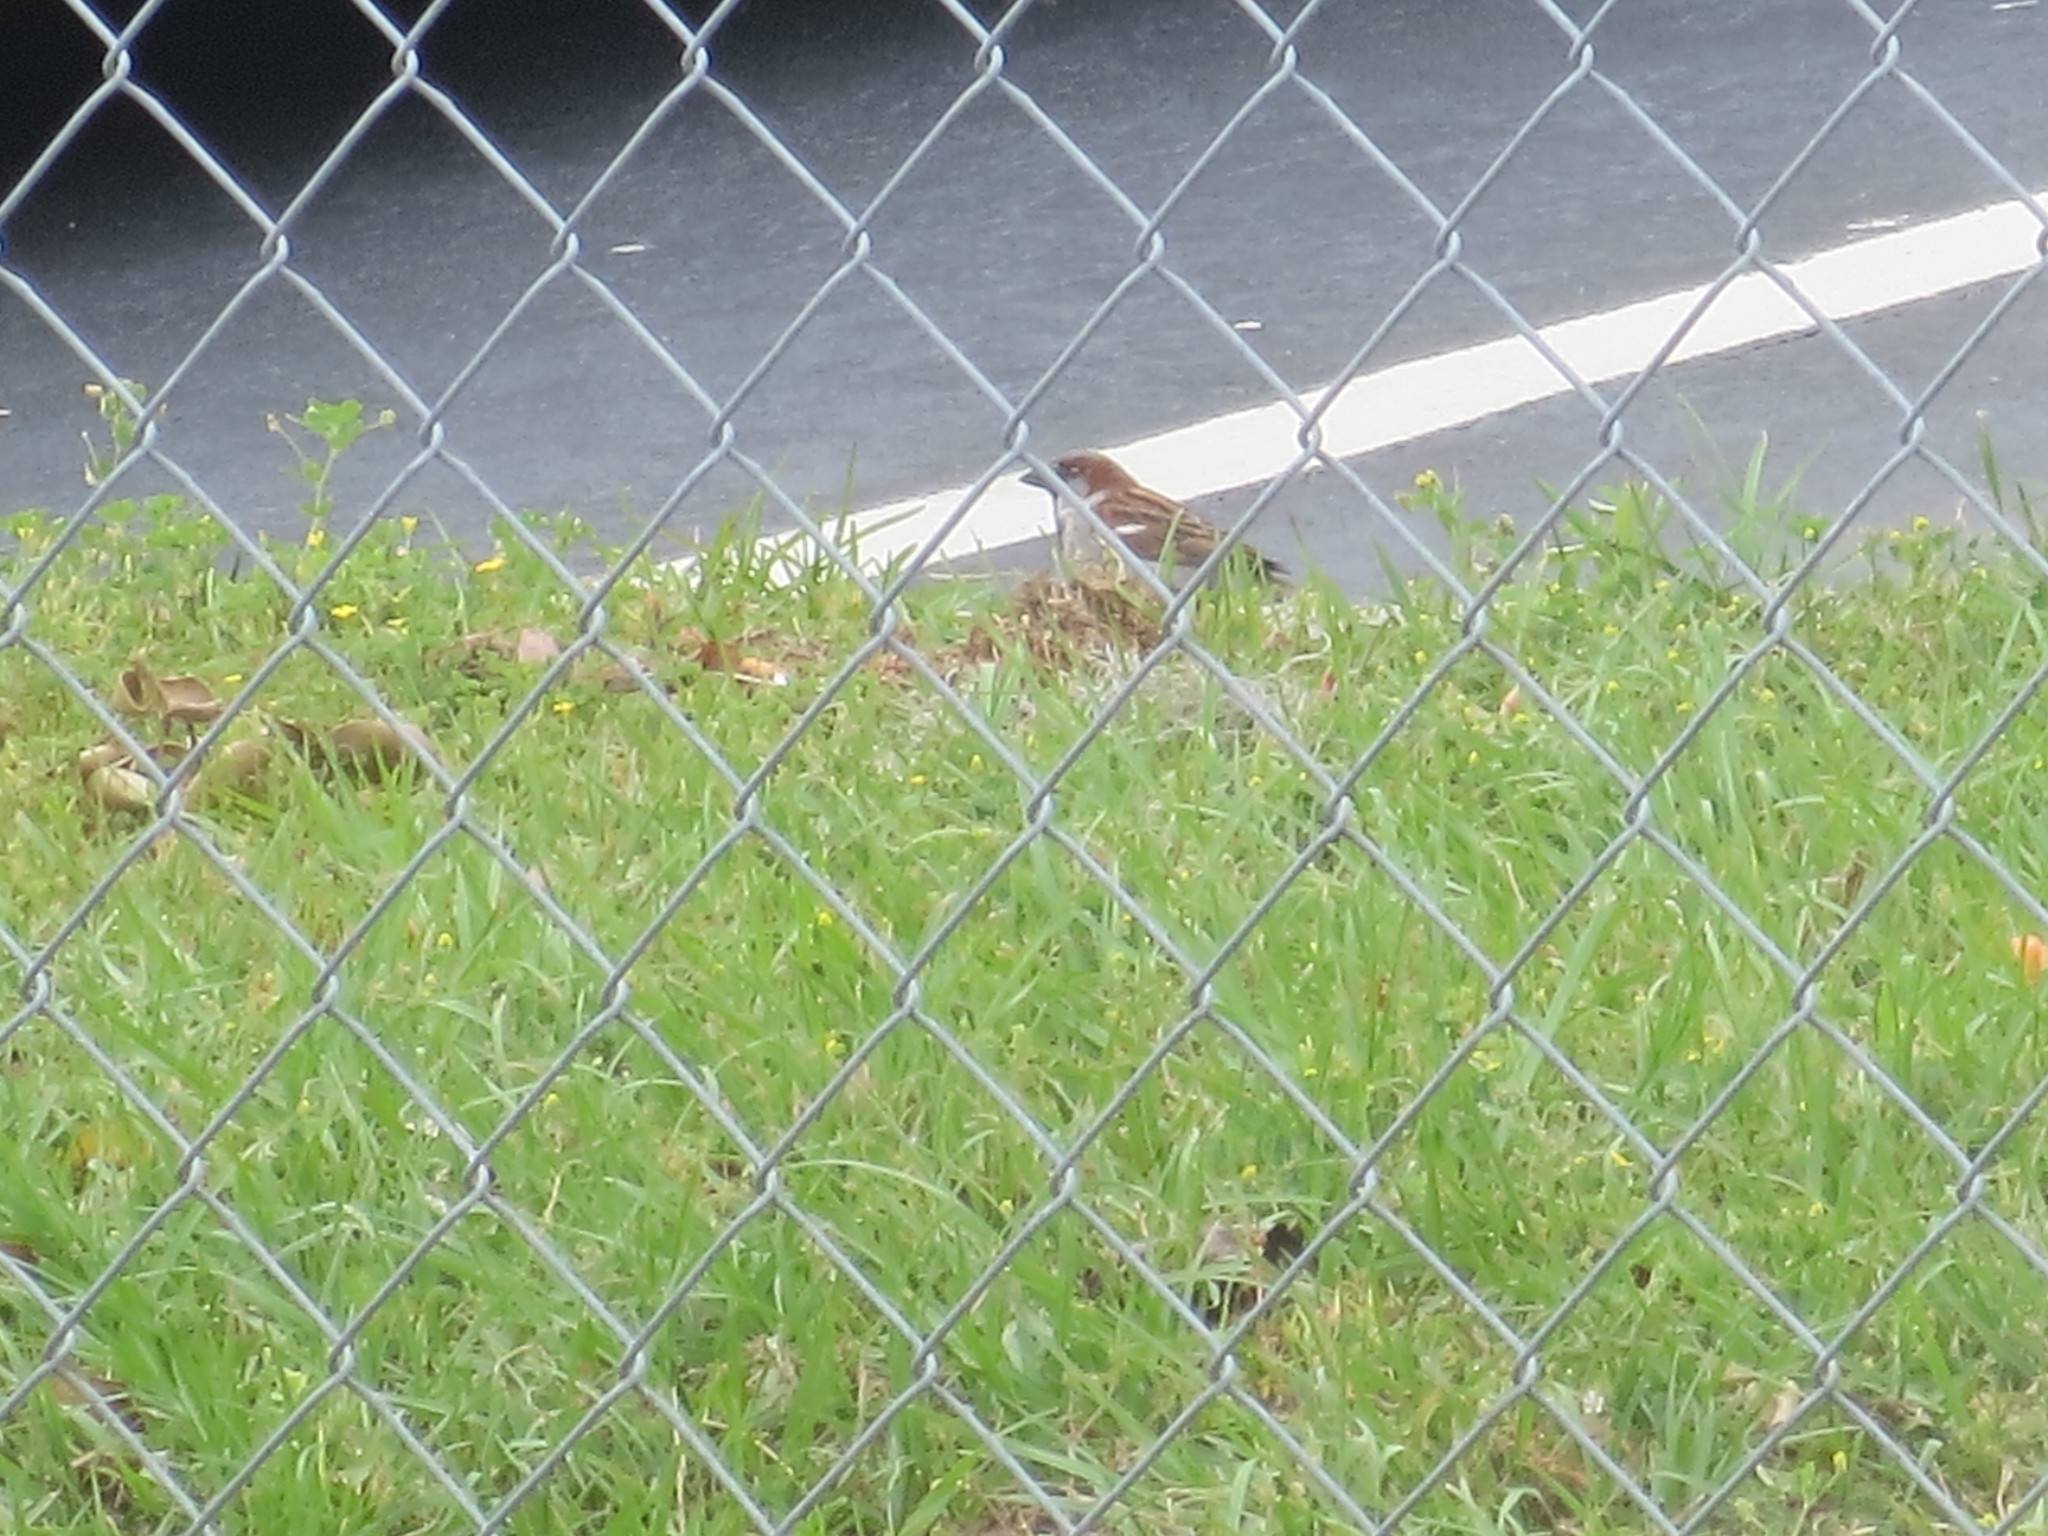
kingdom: Animalia
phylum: Chordata
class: Aves
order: Passeriformes
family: Passeridae
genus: Passer
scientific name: Passer domesticus
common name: House sparrow
